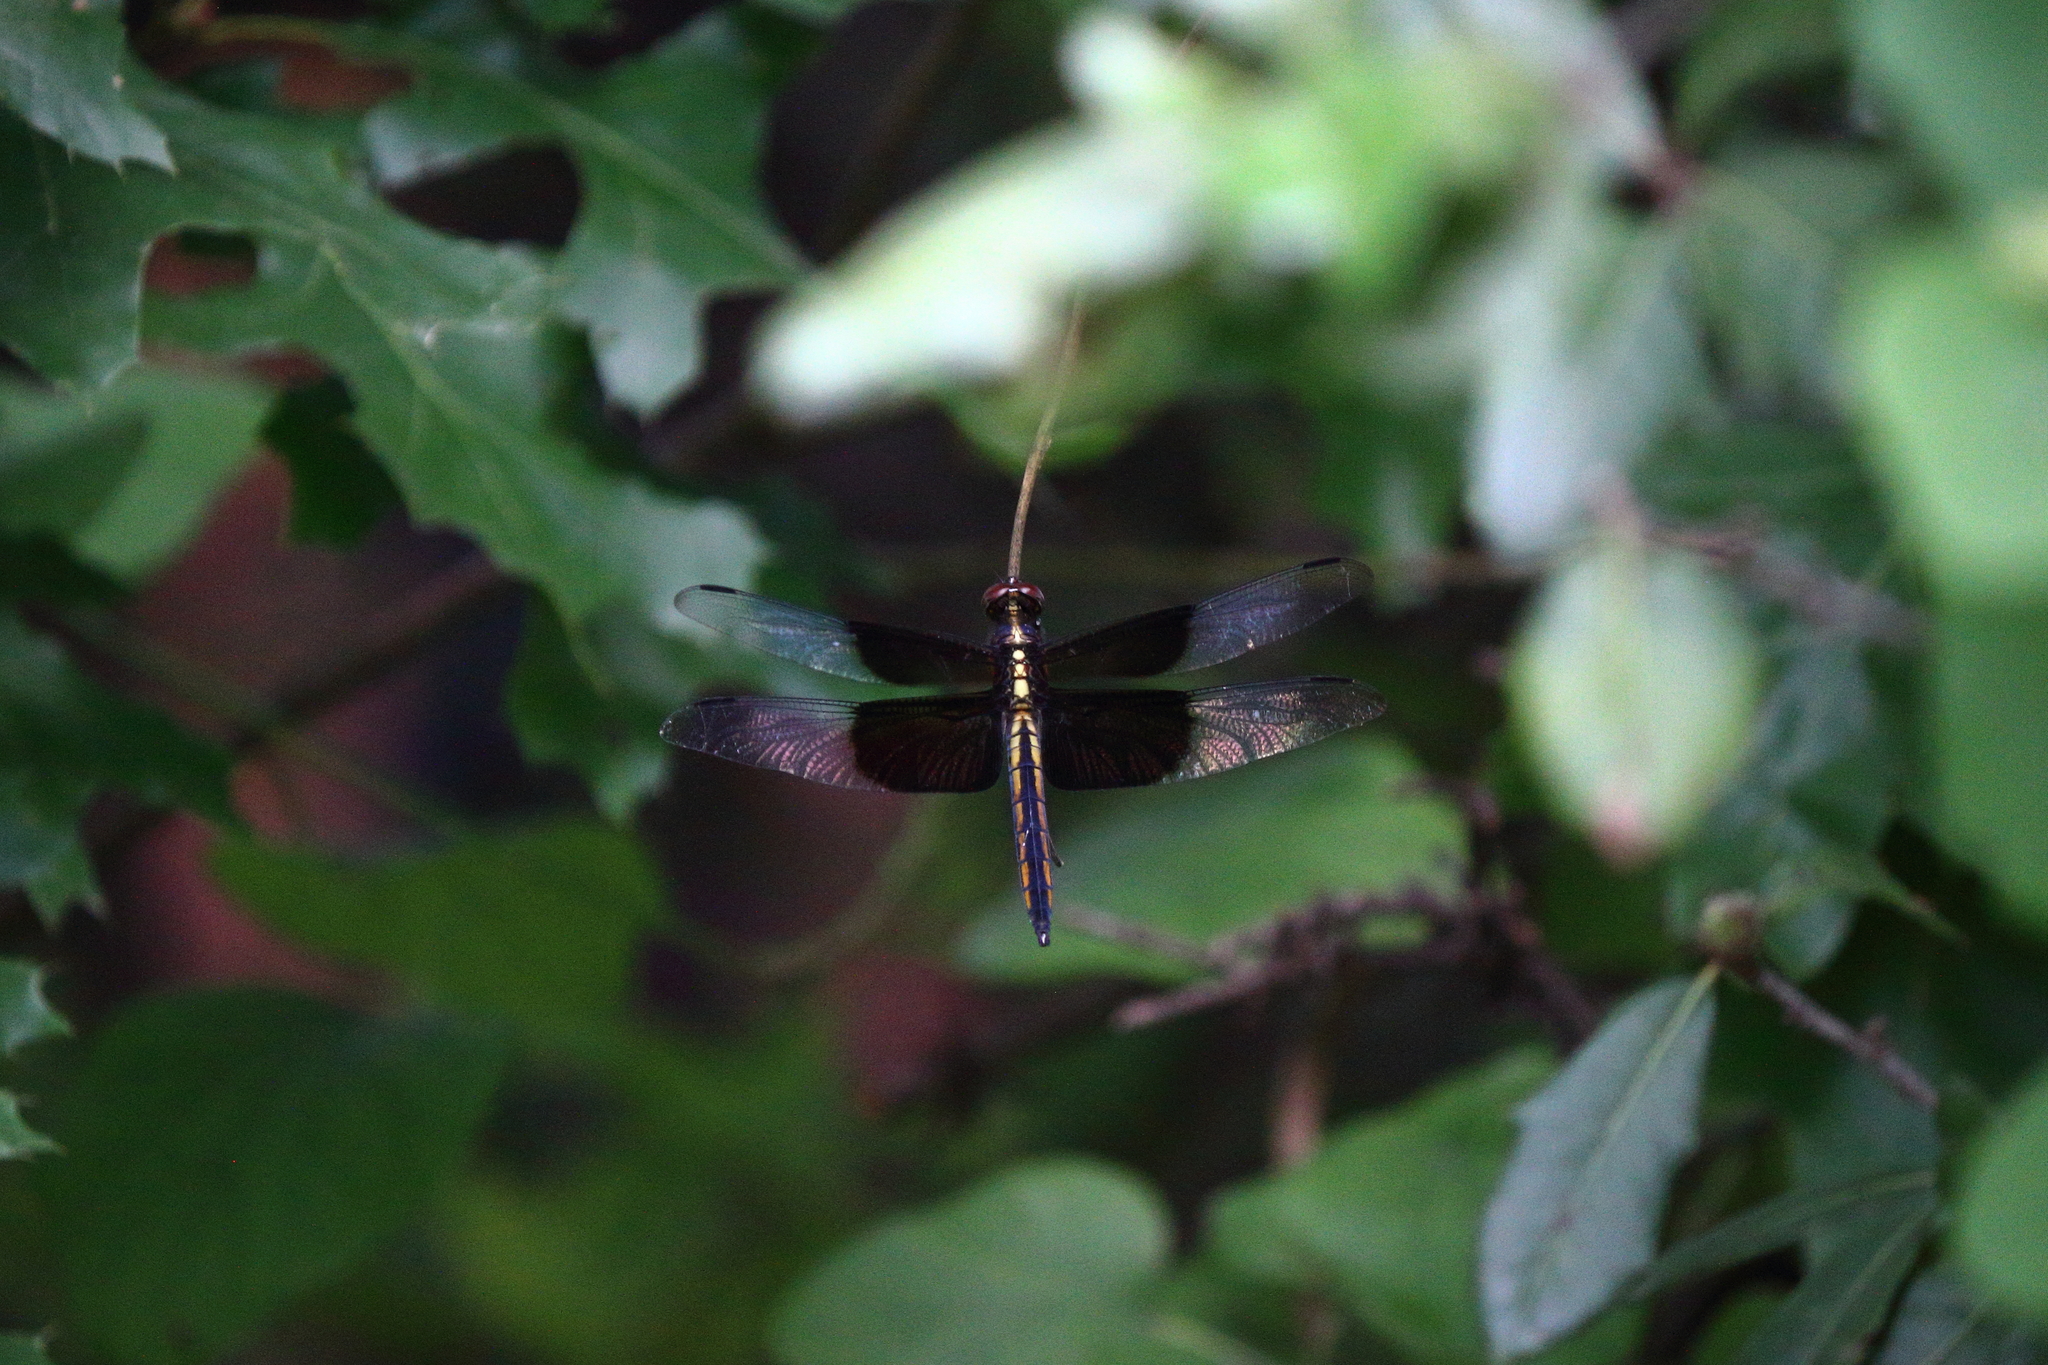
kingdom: Animalia
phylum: Arthropoda
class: Insecta
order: Odonata
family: Libellulidae
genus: Libellula
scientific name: Libellula luctuosa
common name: Widow skimmer
